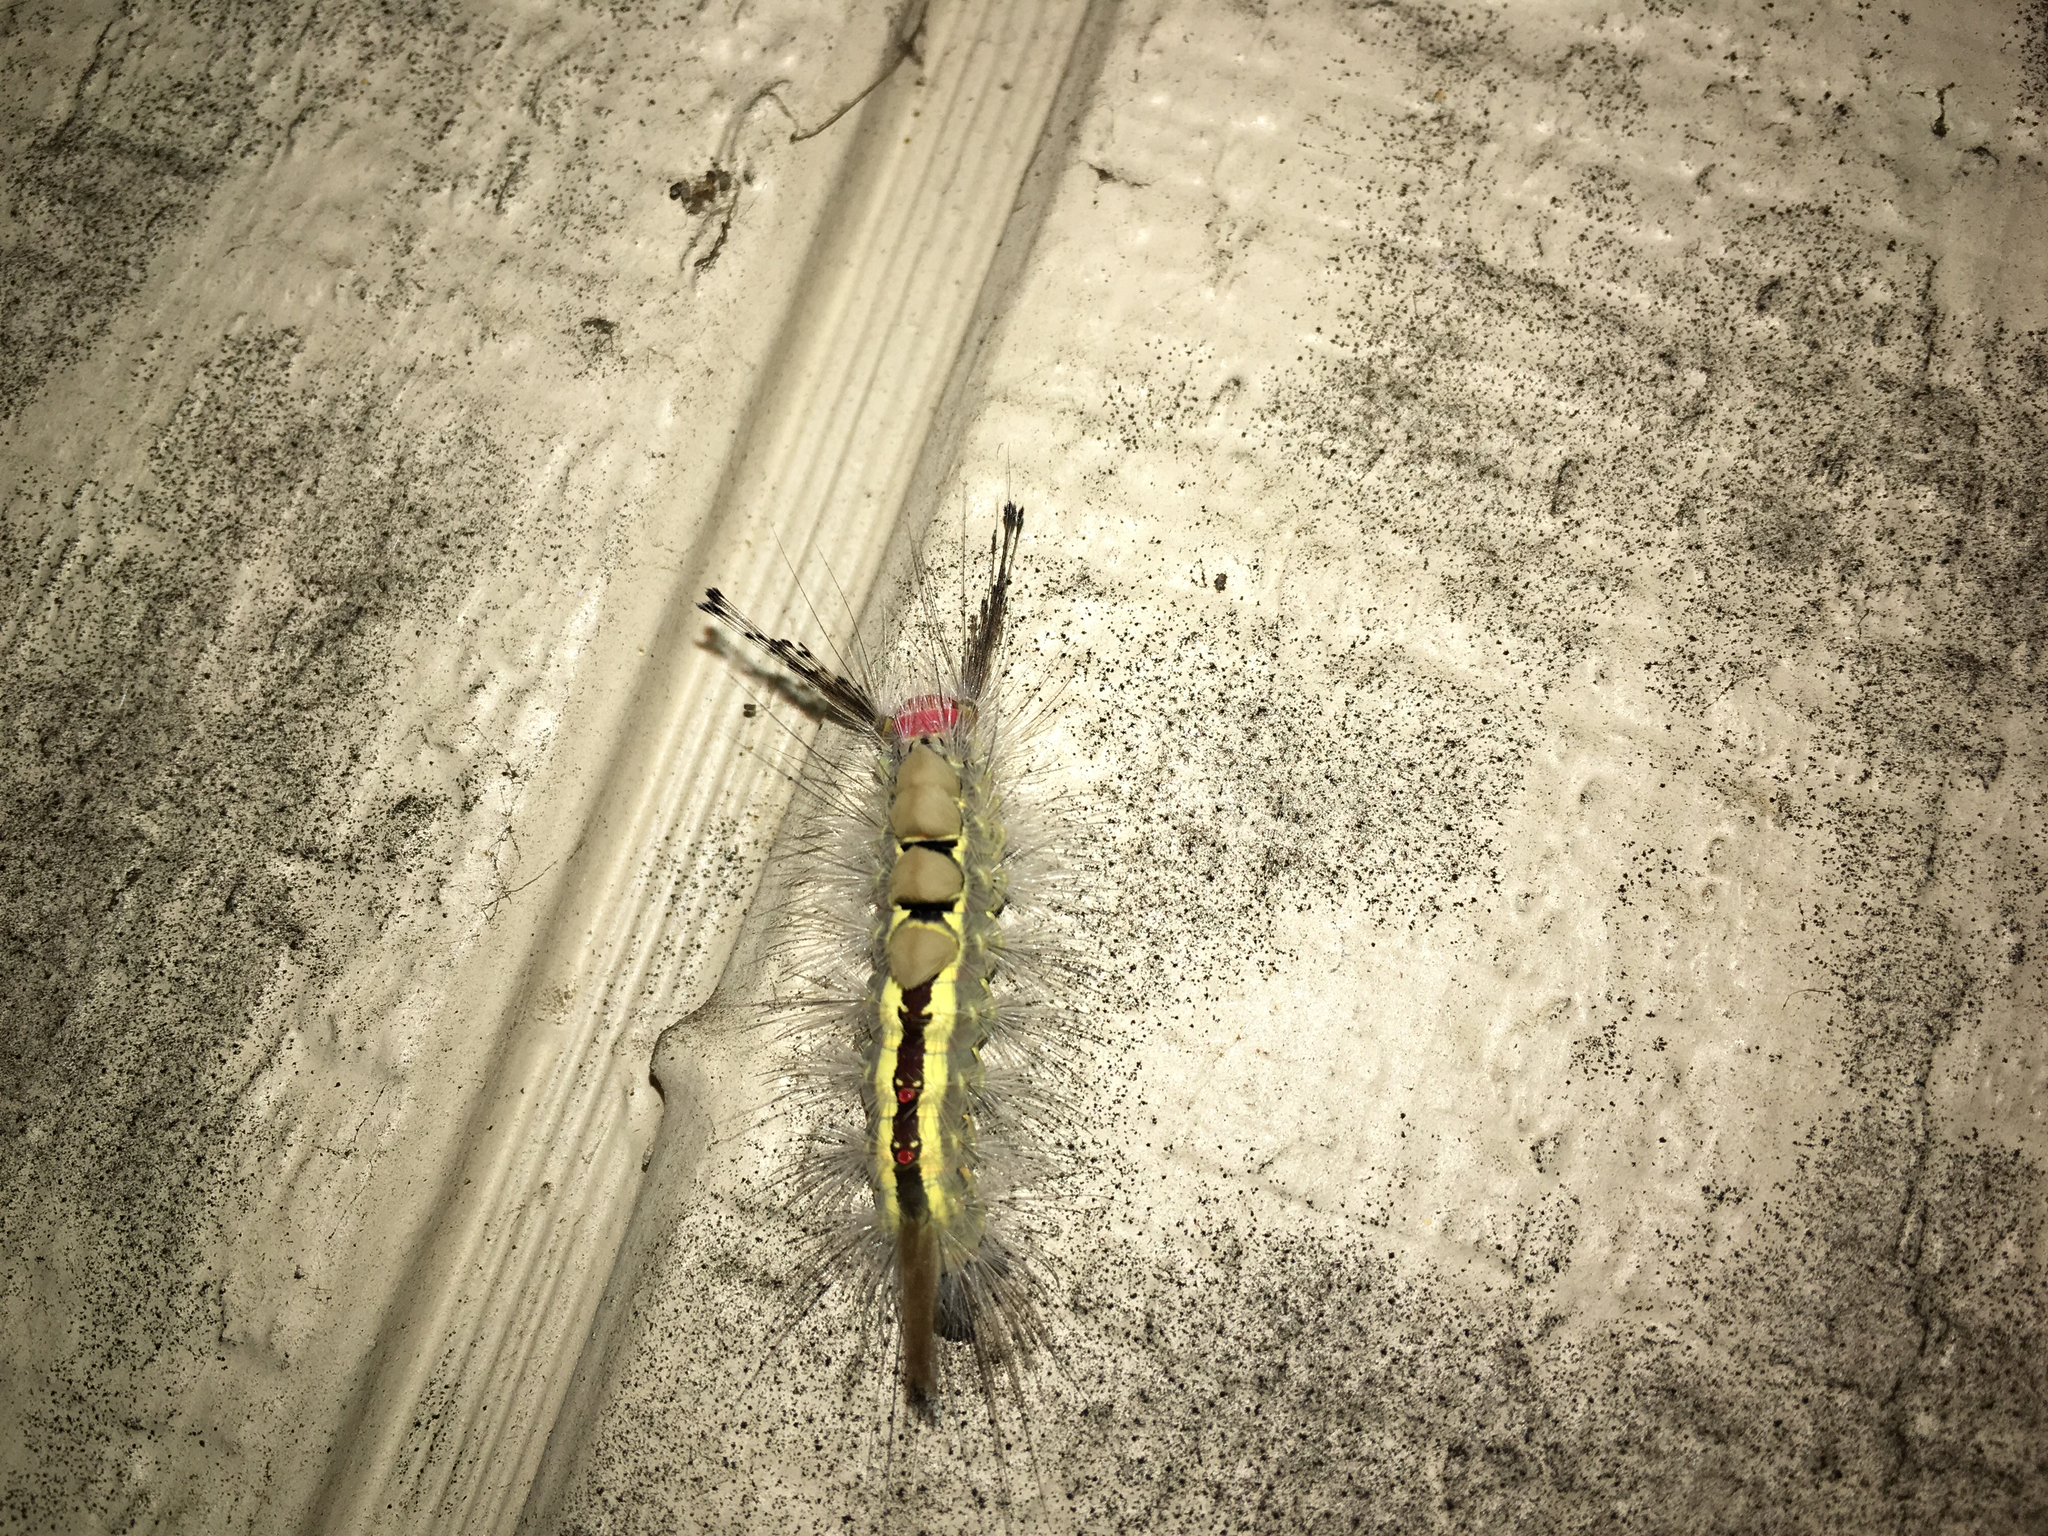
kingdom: Animalia
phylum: Arthropoda
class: Insecta
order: Lepidoptera
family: Erebidae
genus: Orgyia
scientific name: Orgyia leucostigma
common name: White-marked tussock moth
